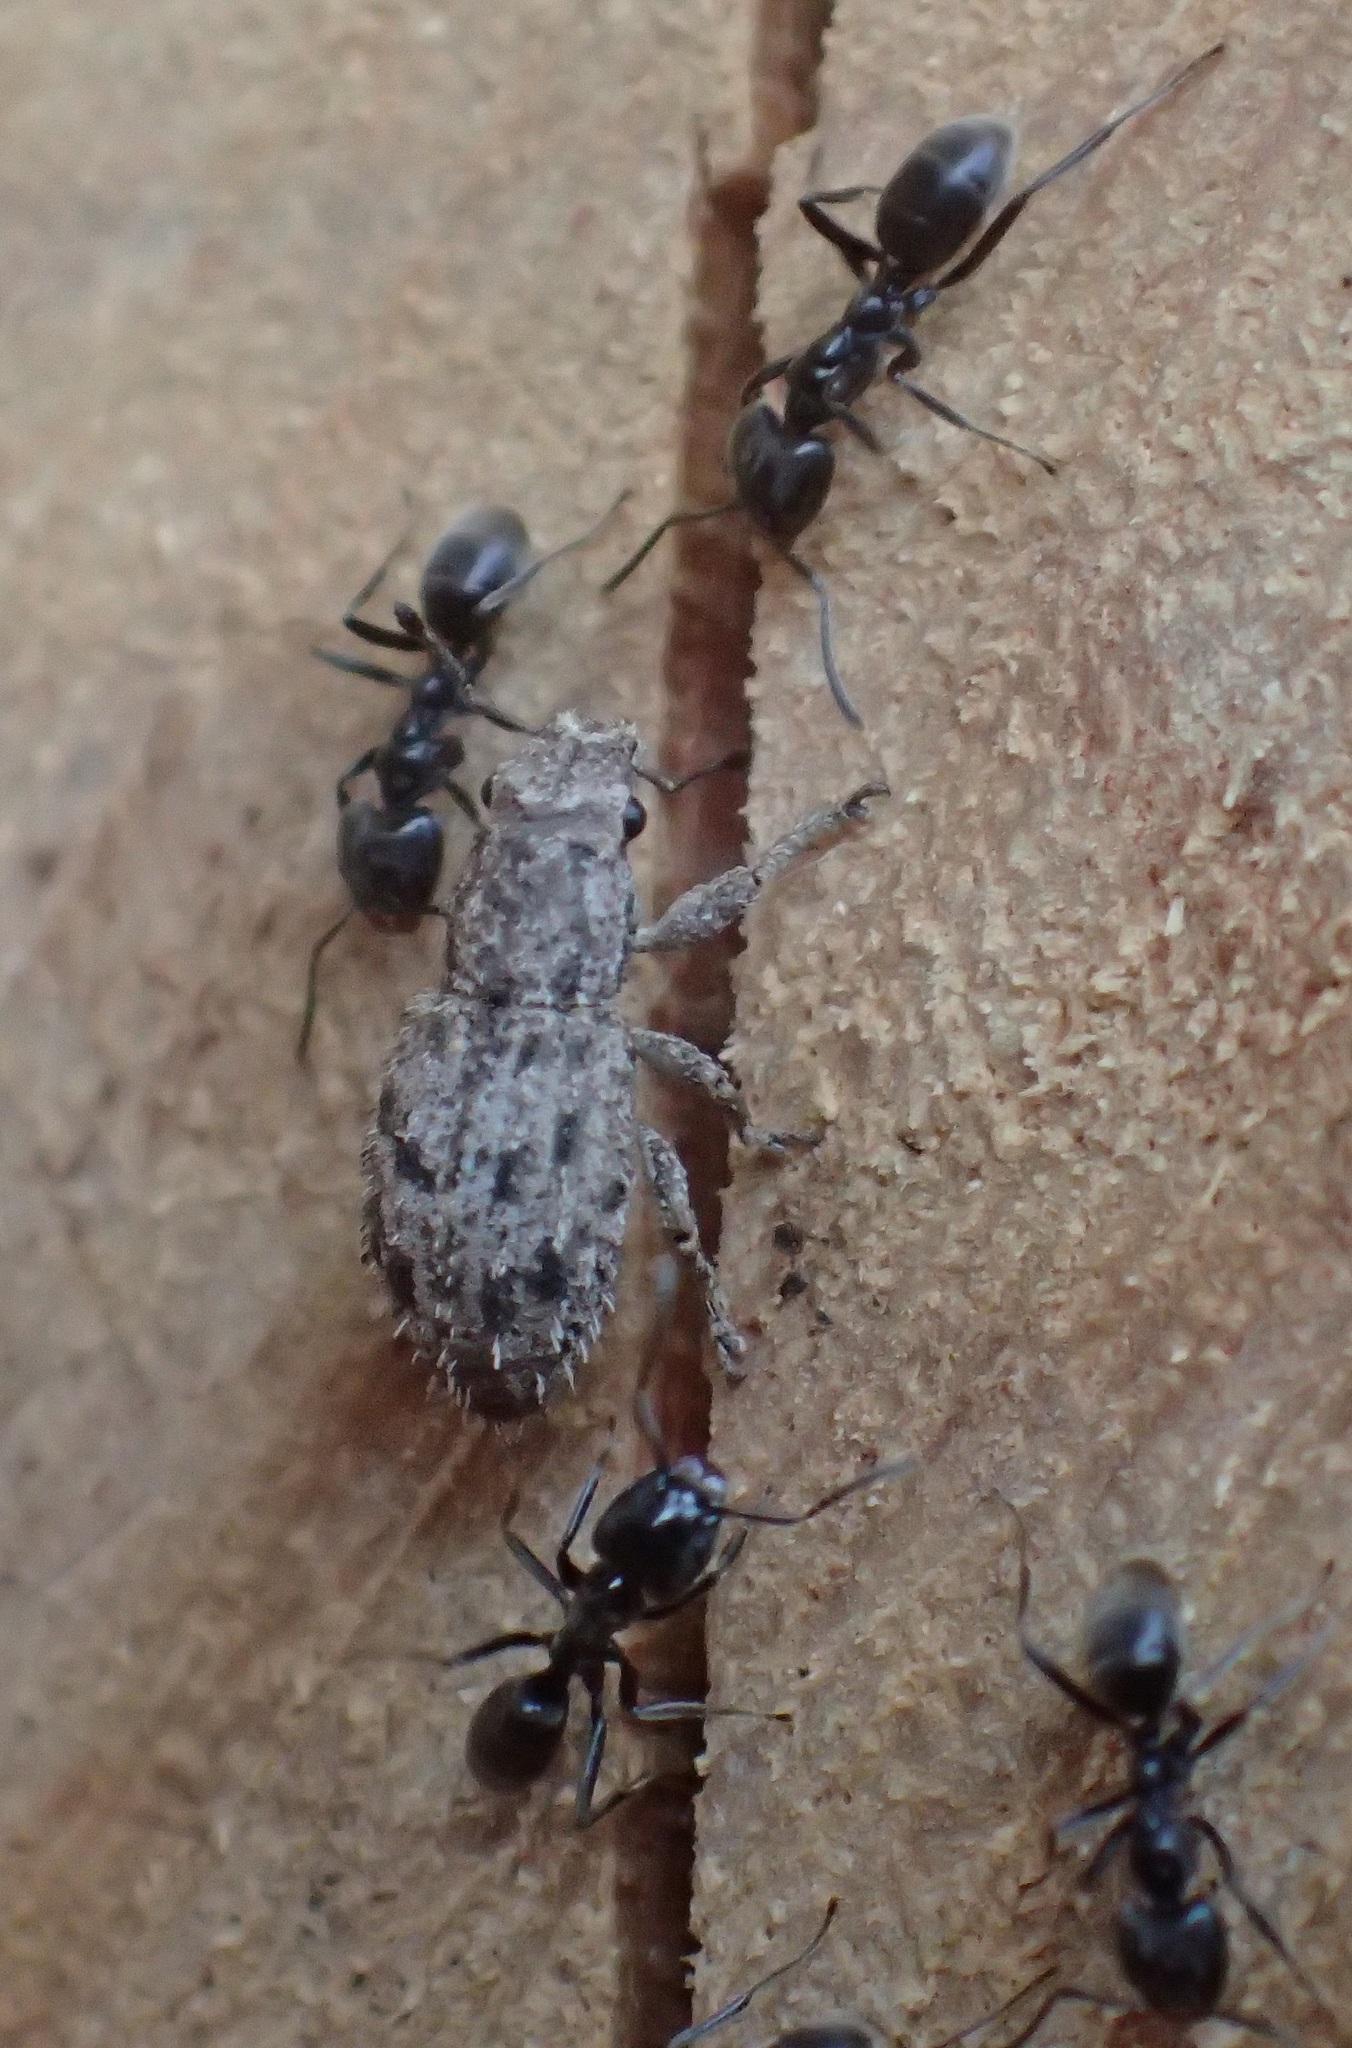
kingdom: Animalia
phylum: Arthropoda
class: Insecta
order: Coleoptera
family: Curculionidae
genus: Floresianus
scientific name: Floresianus sordidus
